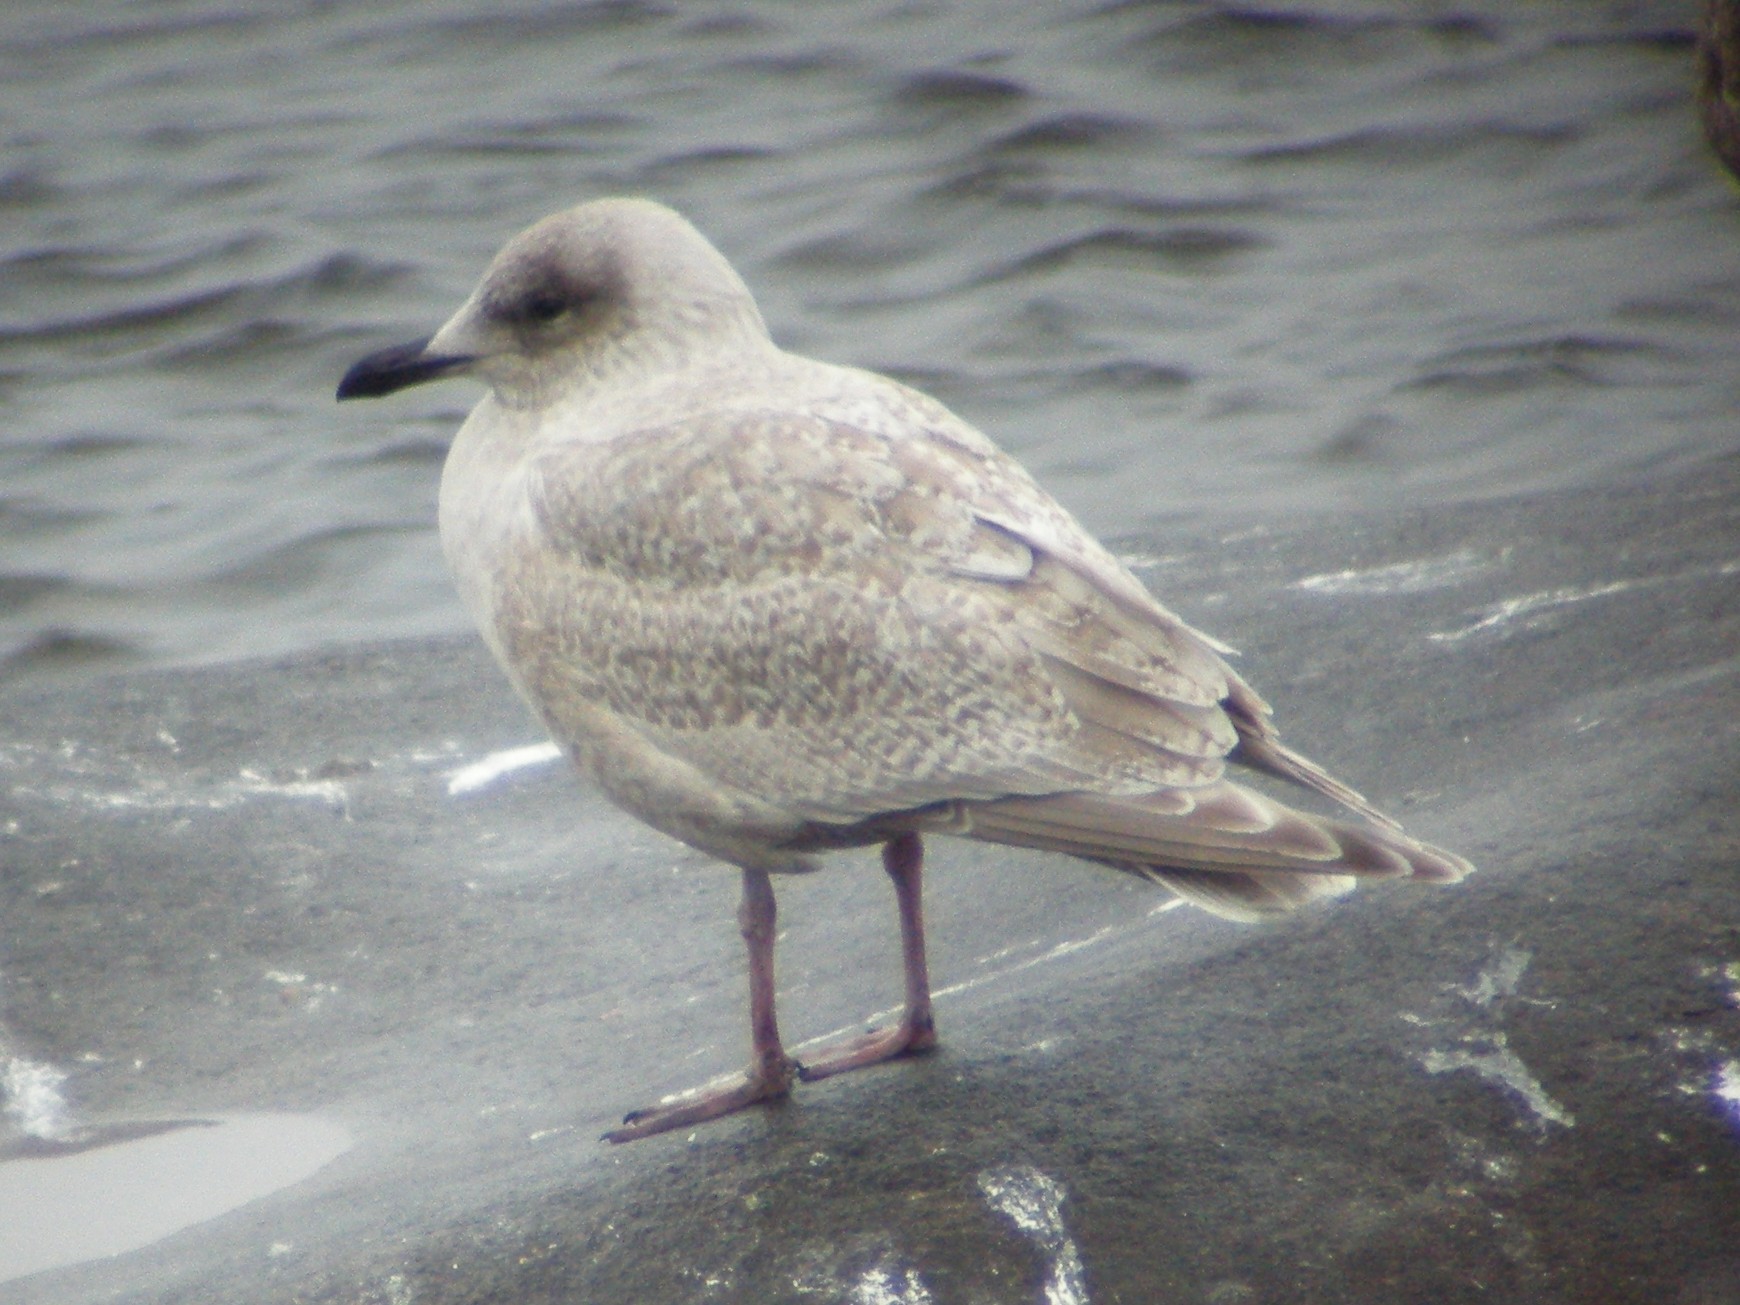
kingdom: Animalia
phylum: Chordata
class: Aves
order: Charadriiformes
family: Laridae
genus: Larus
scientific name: Larus glaucoides
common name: Iceland gull
